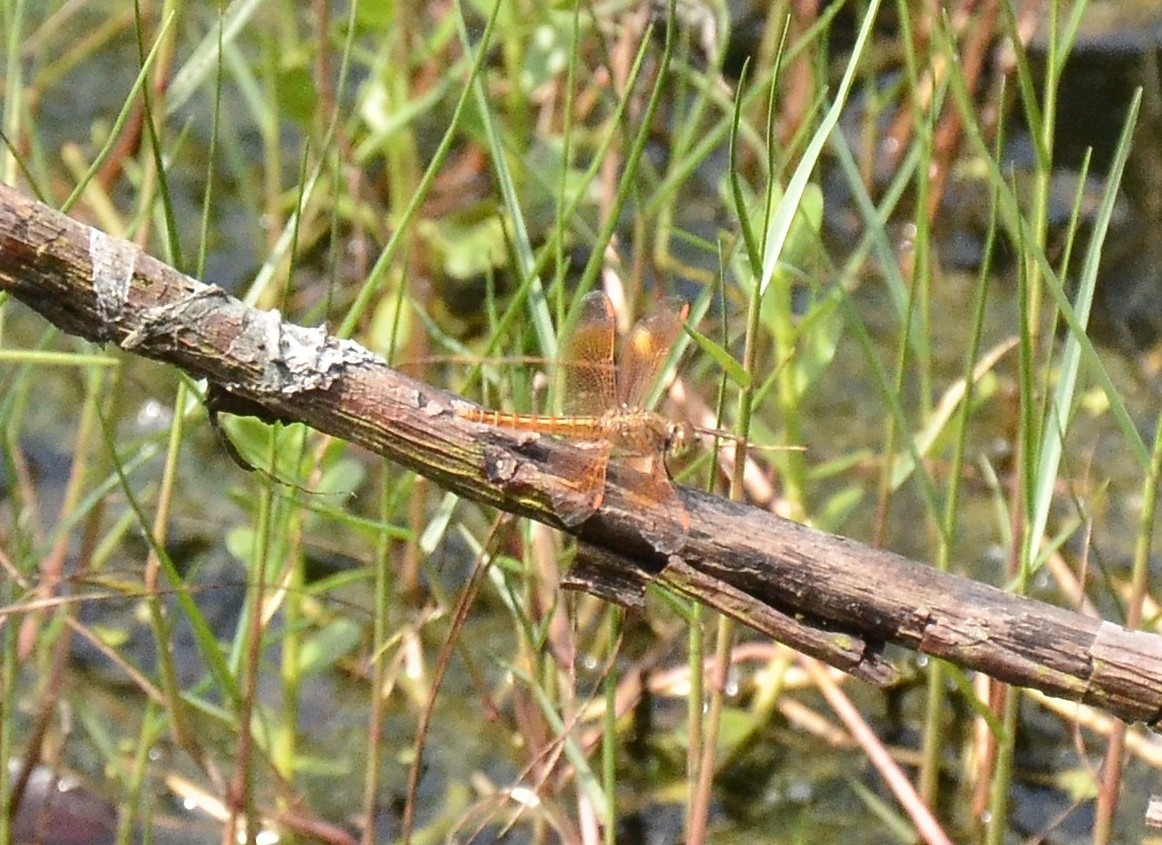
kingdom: Animalia
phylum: Arthropoda
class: Insecta
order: Odonata
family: Libellulidae
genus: Brachythemis
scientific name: Brachythemis contaminata
